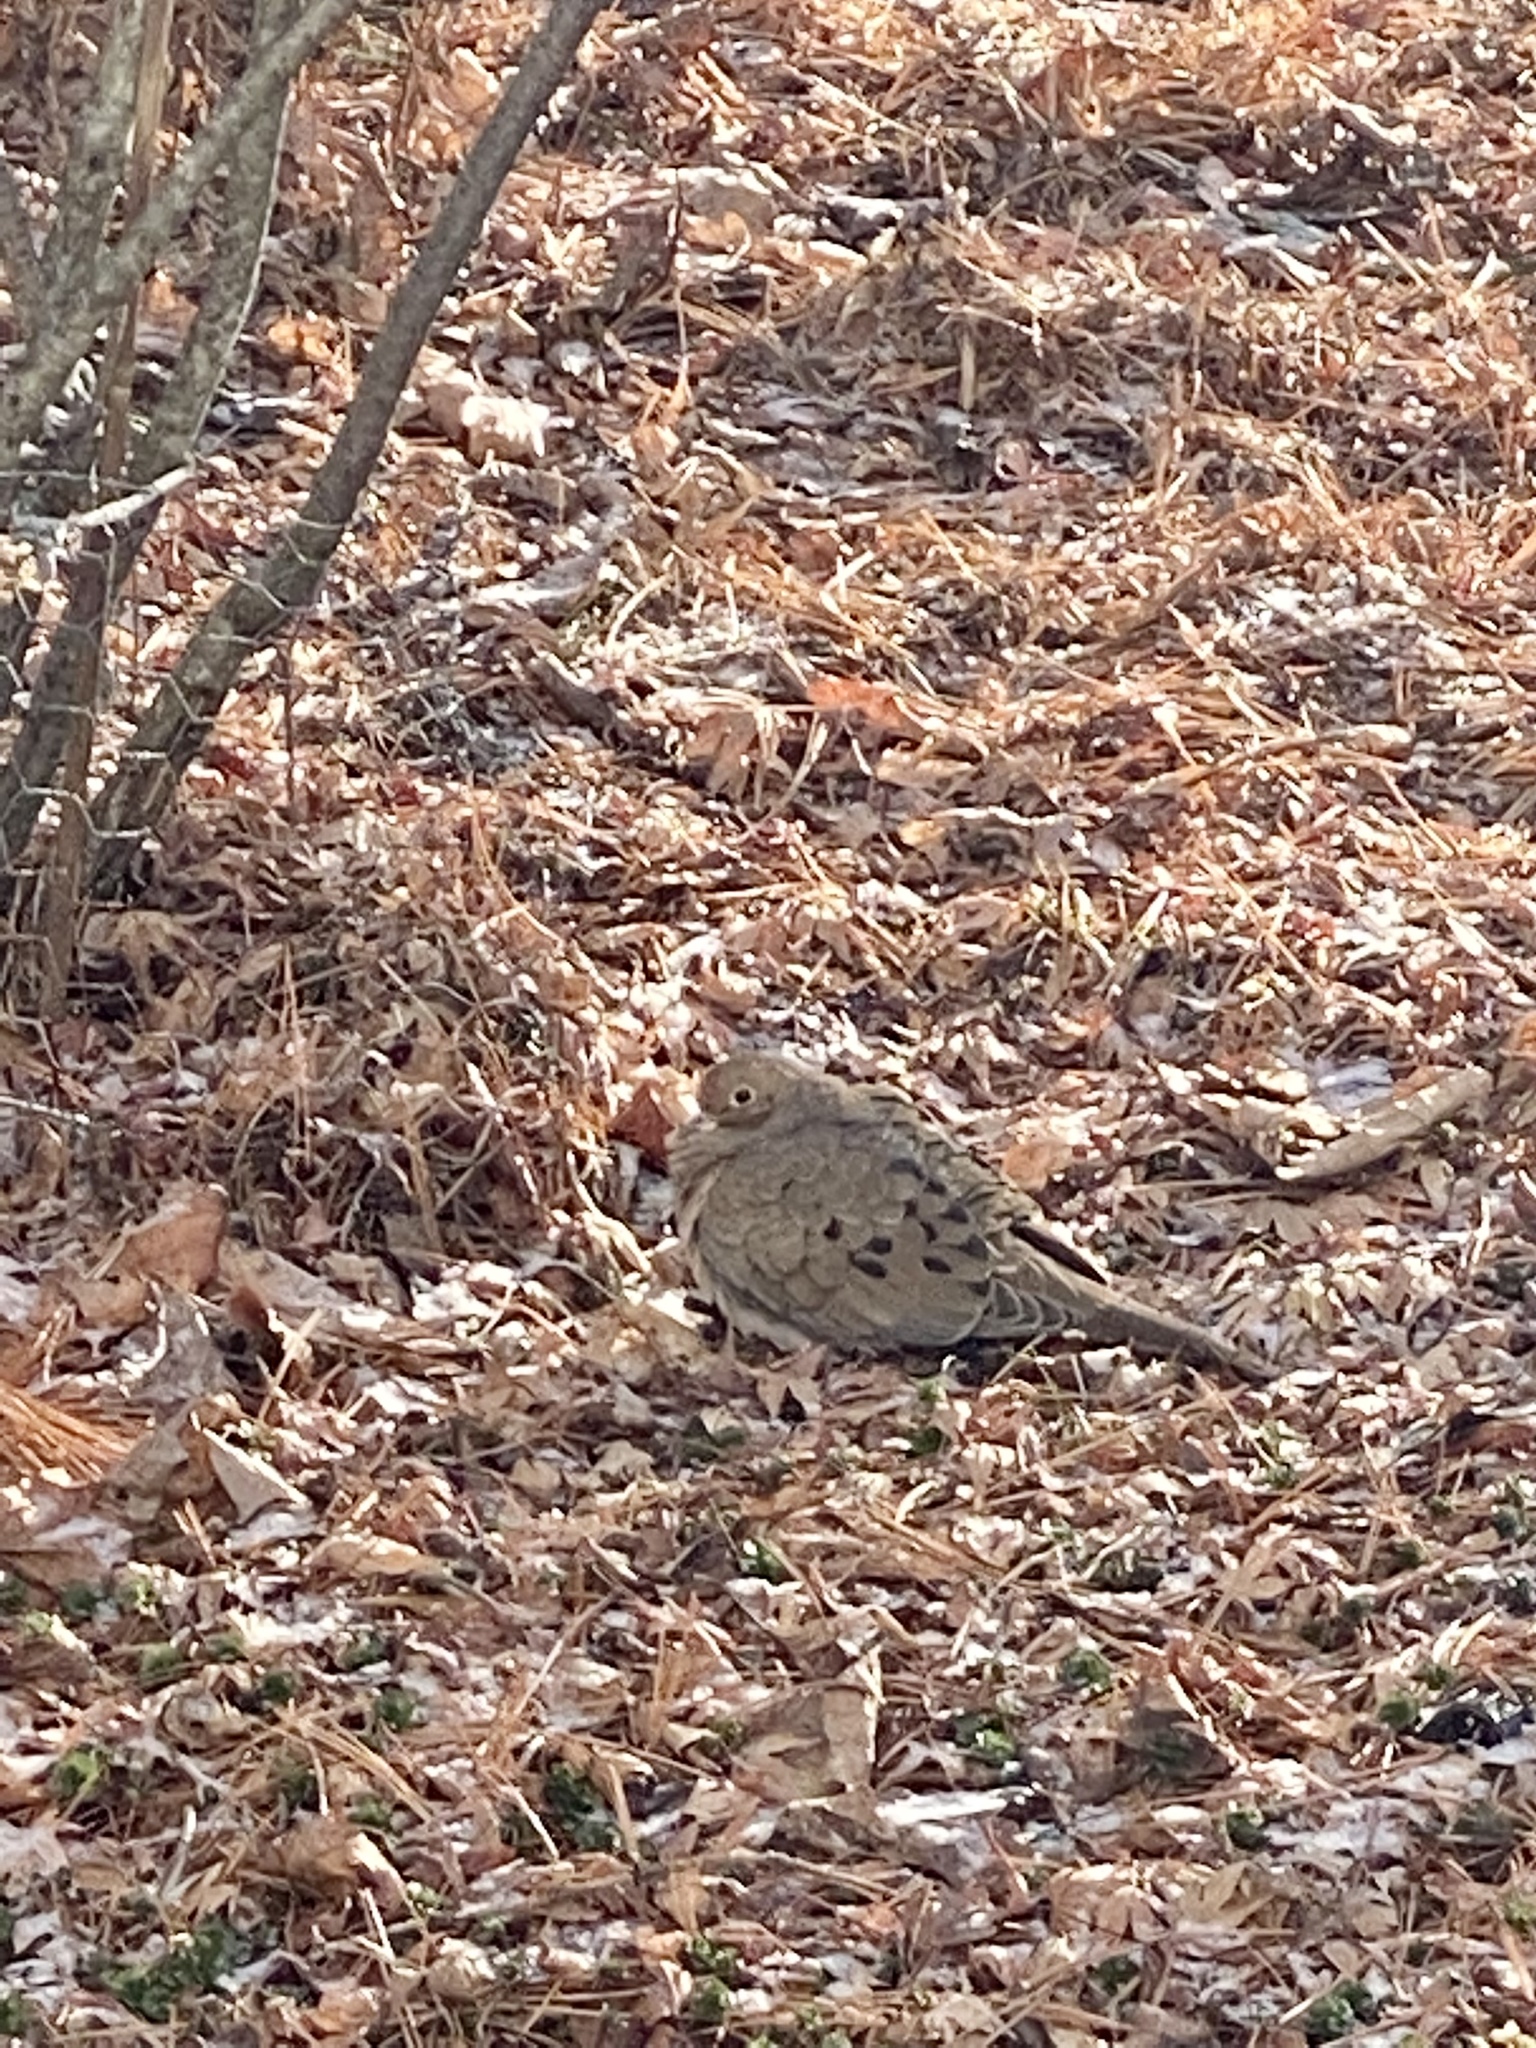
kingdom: Animalia
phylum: Chordata
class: Aves
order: Columbiformes
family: Columbidae
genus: Zenaida
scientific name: Zenaida macroura
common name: Mourning dove
